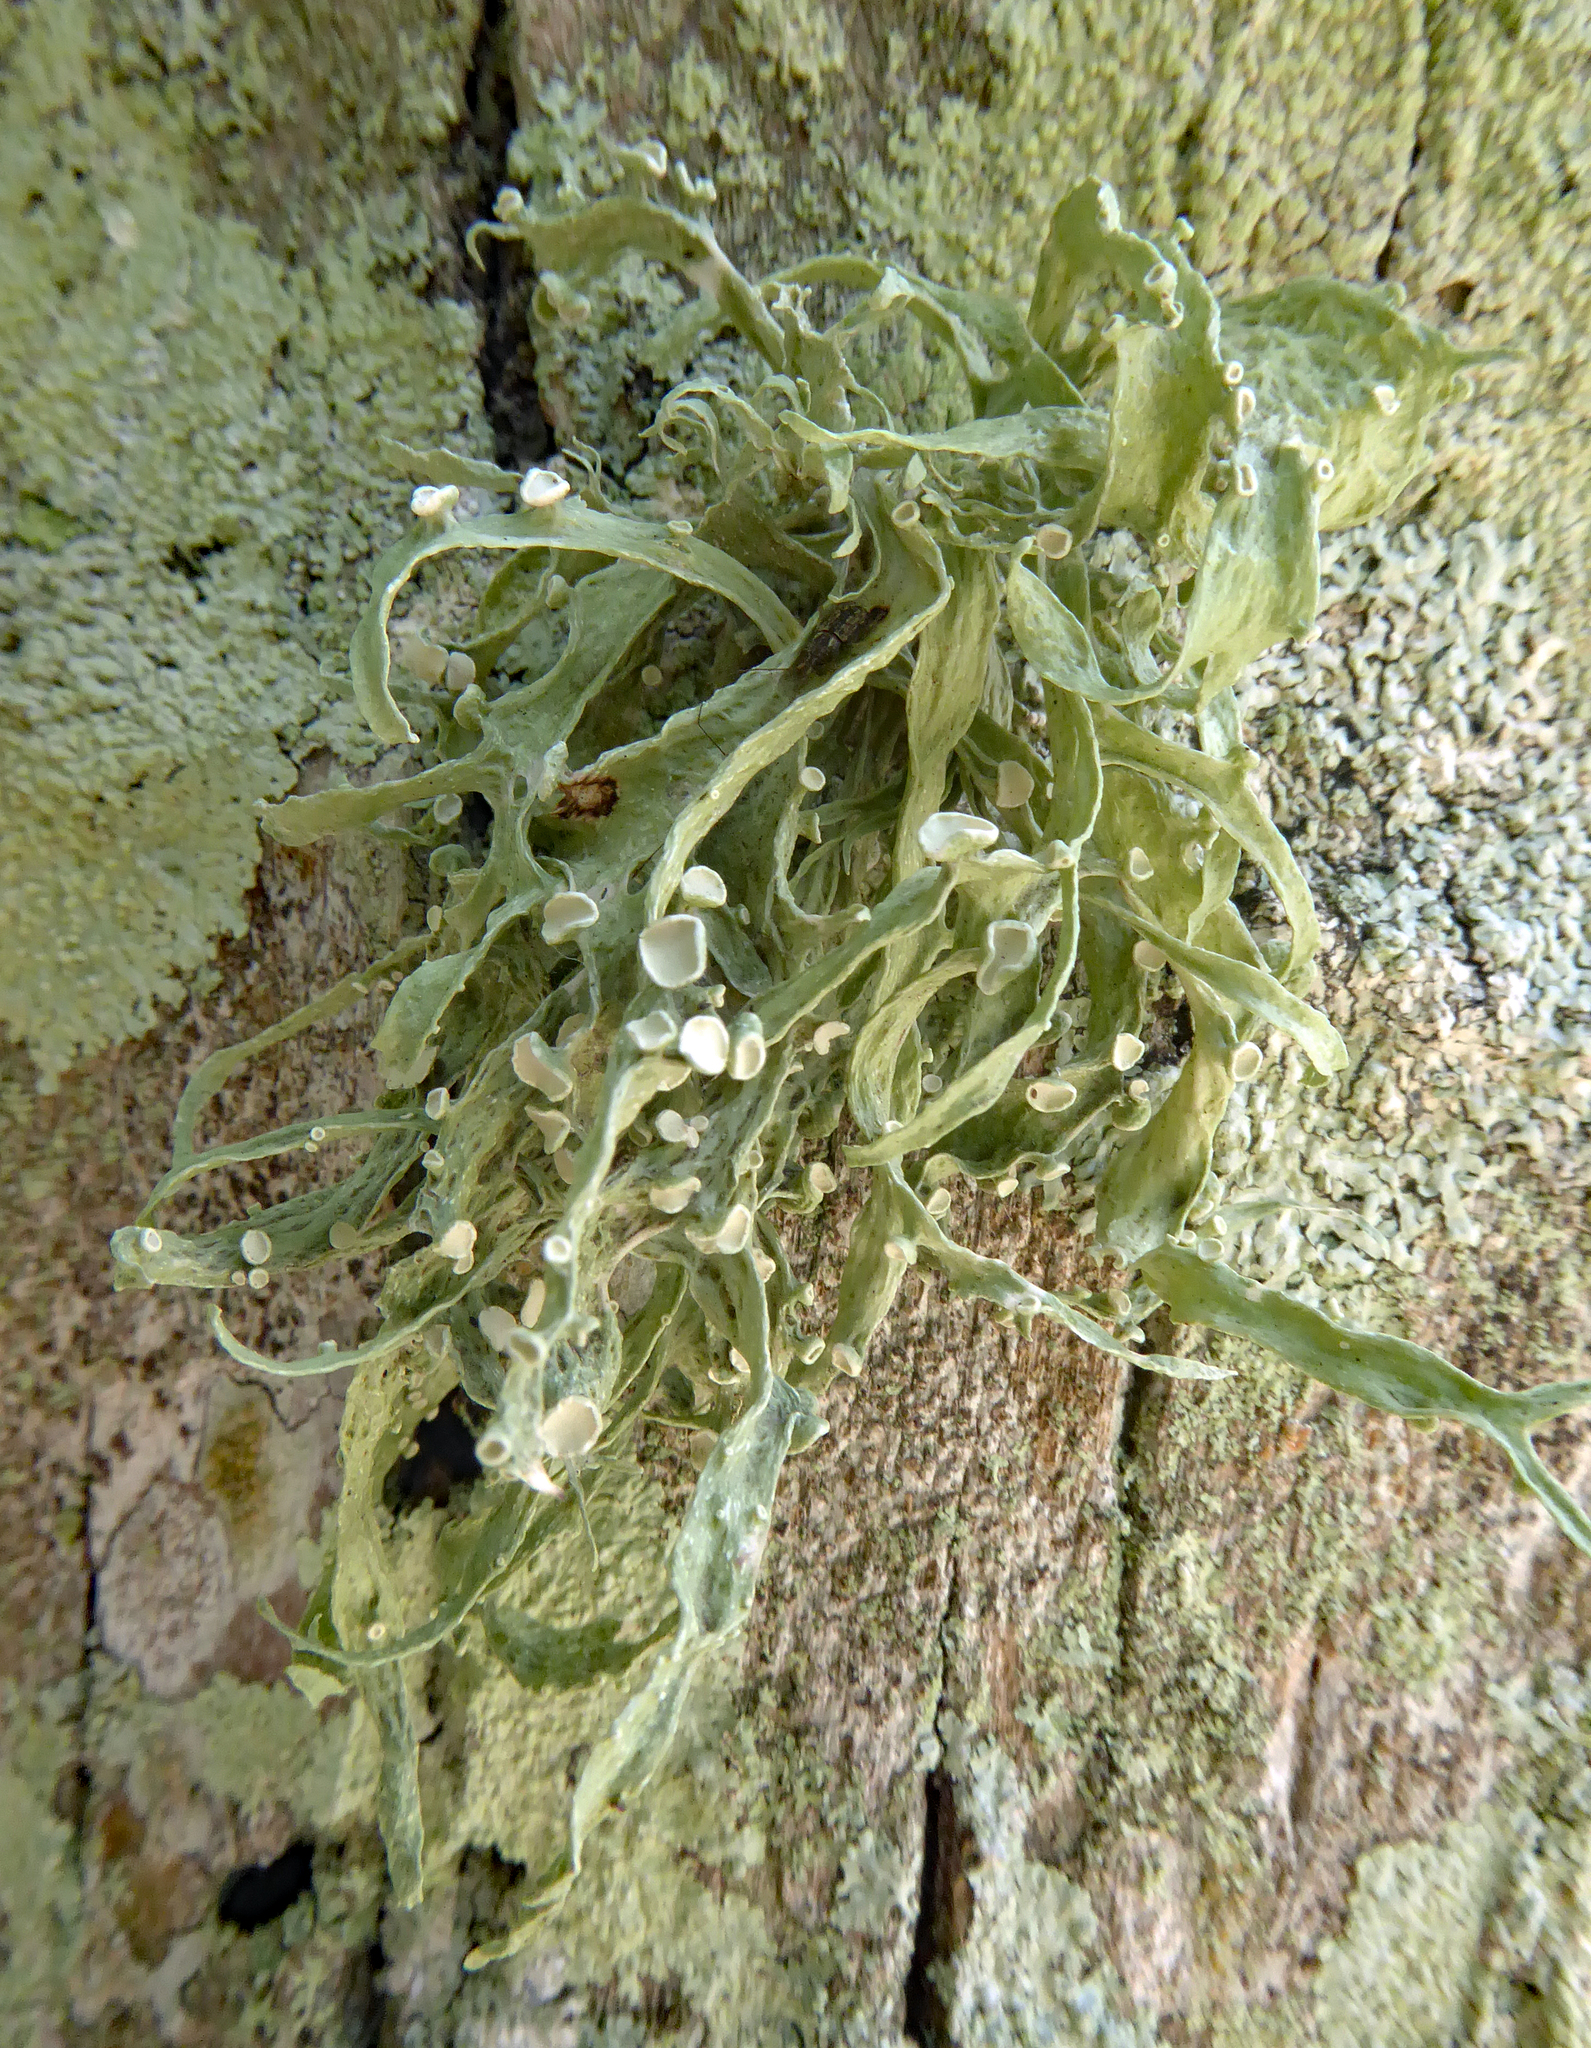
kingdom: Fungi
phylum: Ascomycota
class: Lecanoromycetes
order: Lecanorales
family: Ramalinaceae
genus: Ramalina
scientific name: Ramalina leiodea
